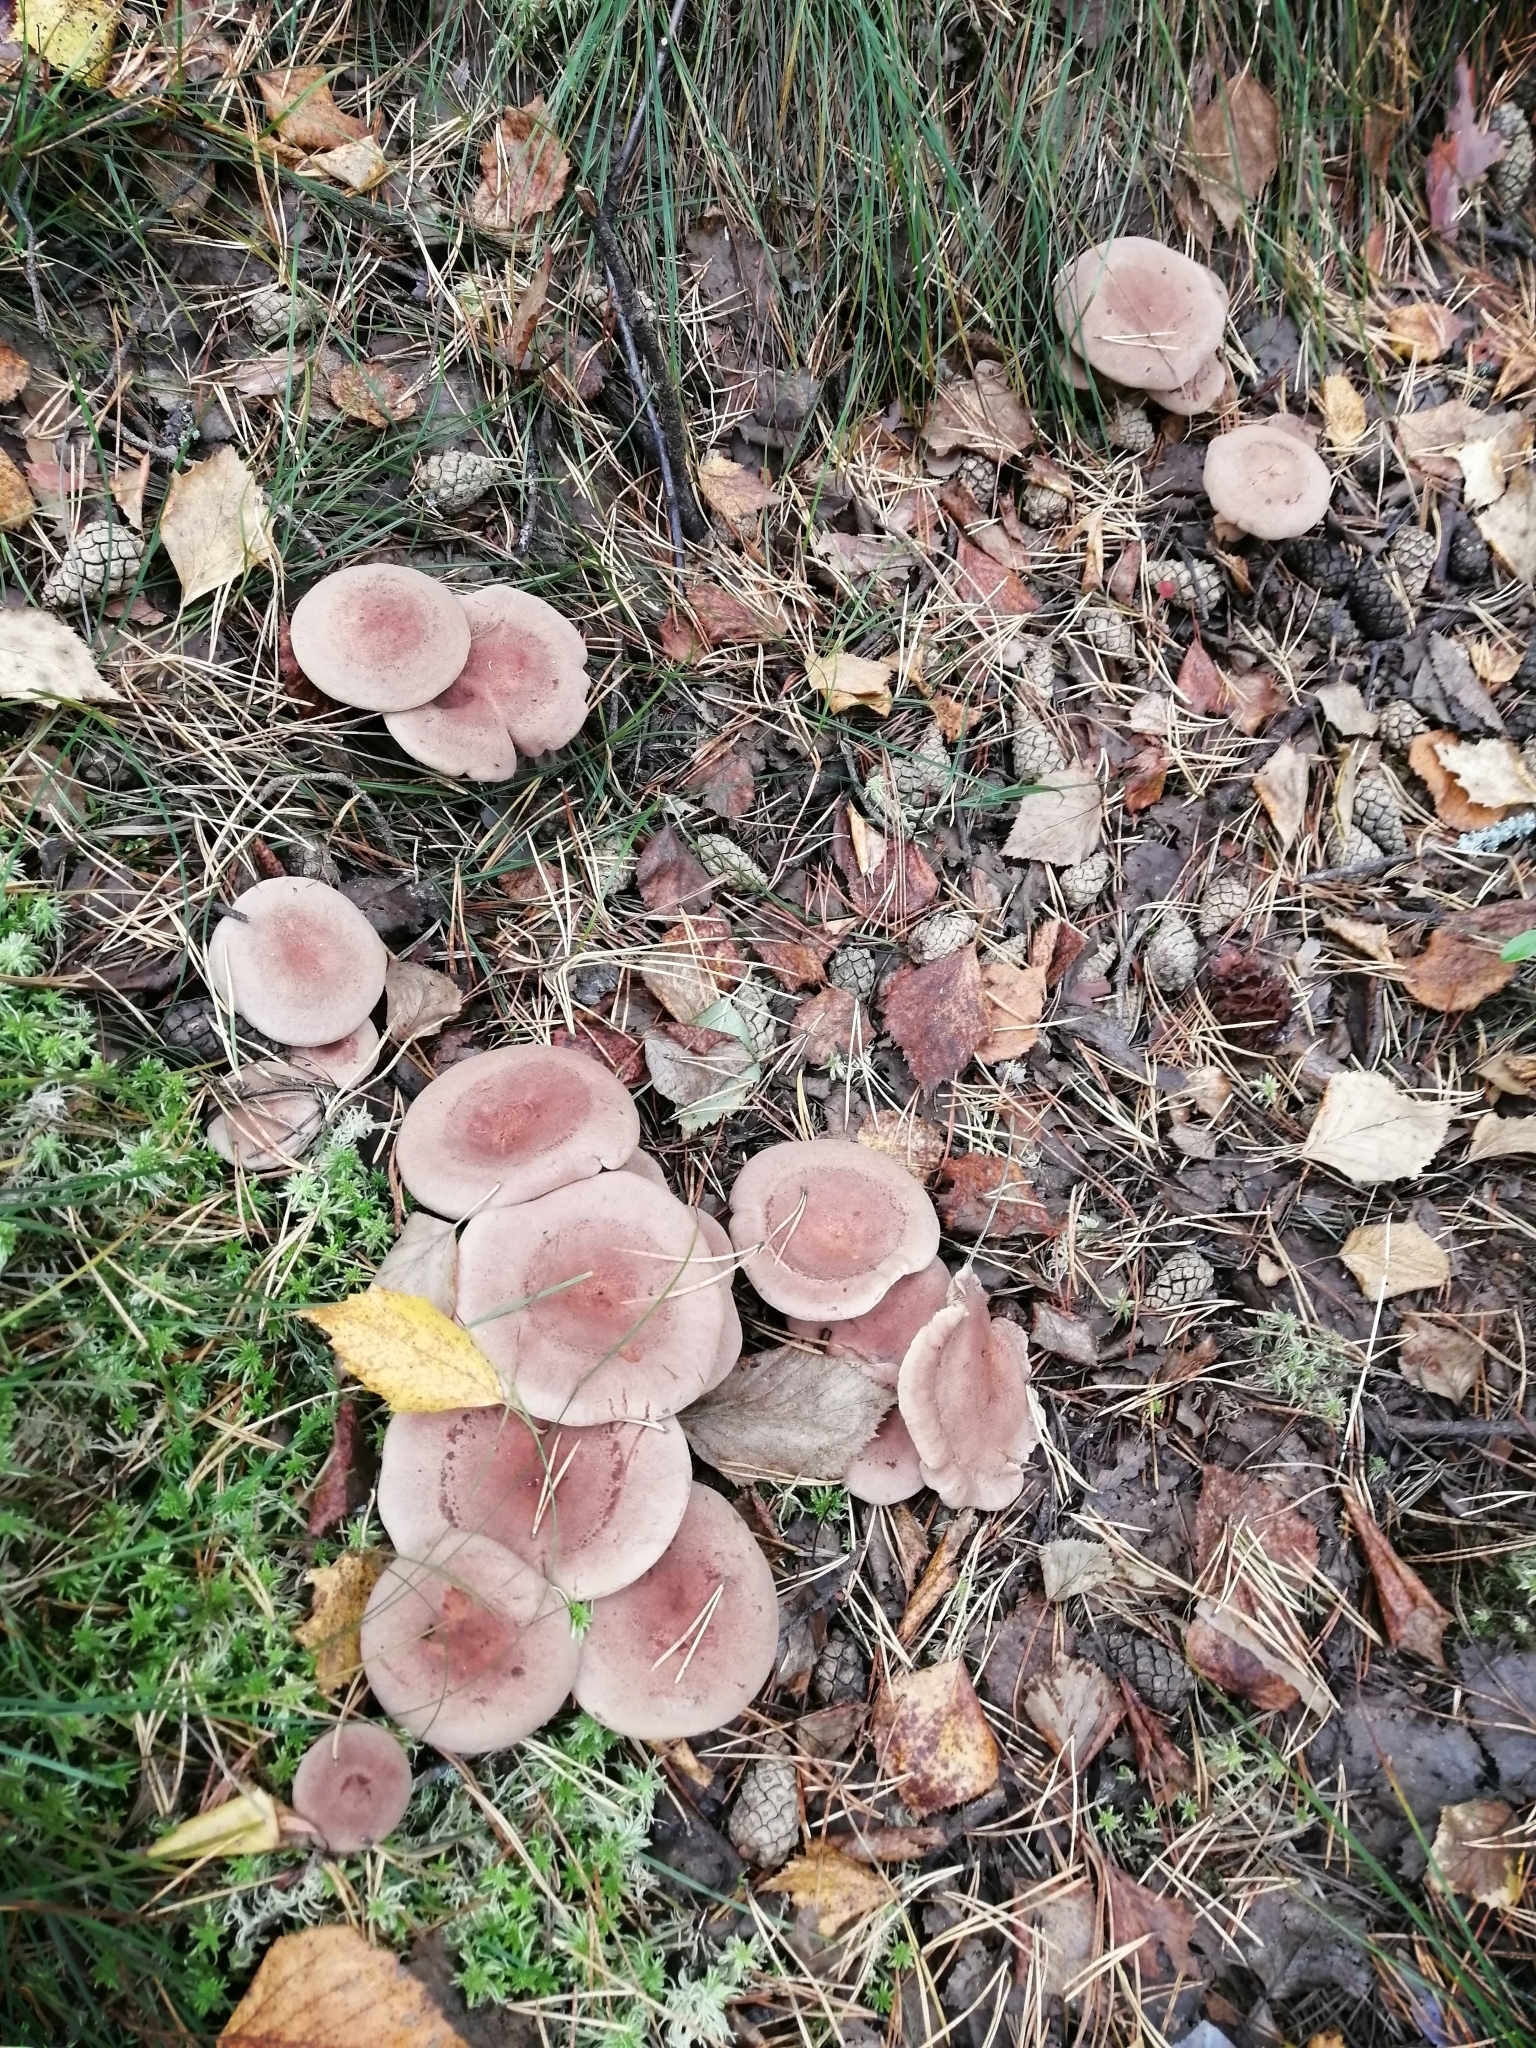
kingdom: Fungi
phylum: Basidiomycota
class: Agaricomycetes
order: Russulales
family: Russulaceae
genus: Lactarius
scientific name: Lactarius helvus
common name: Fenugreek milkcap
